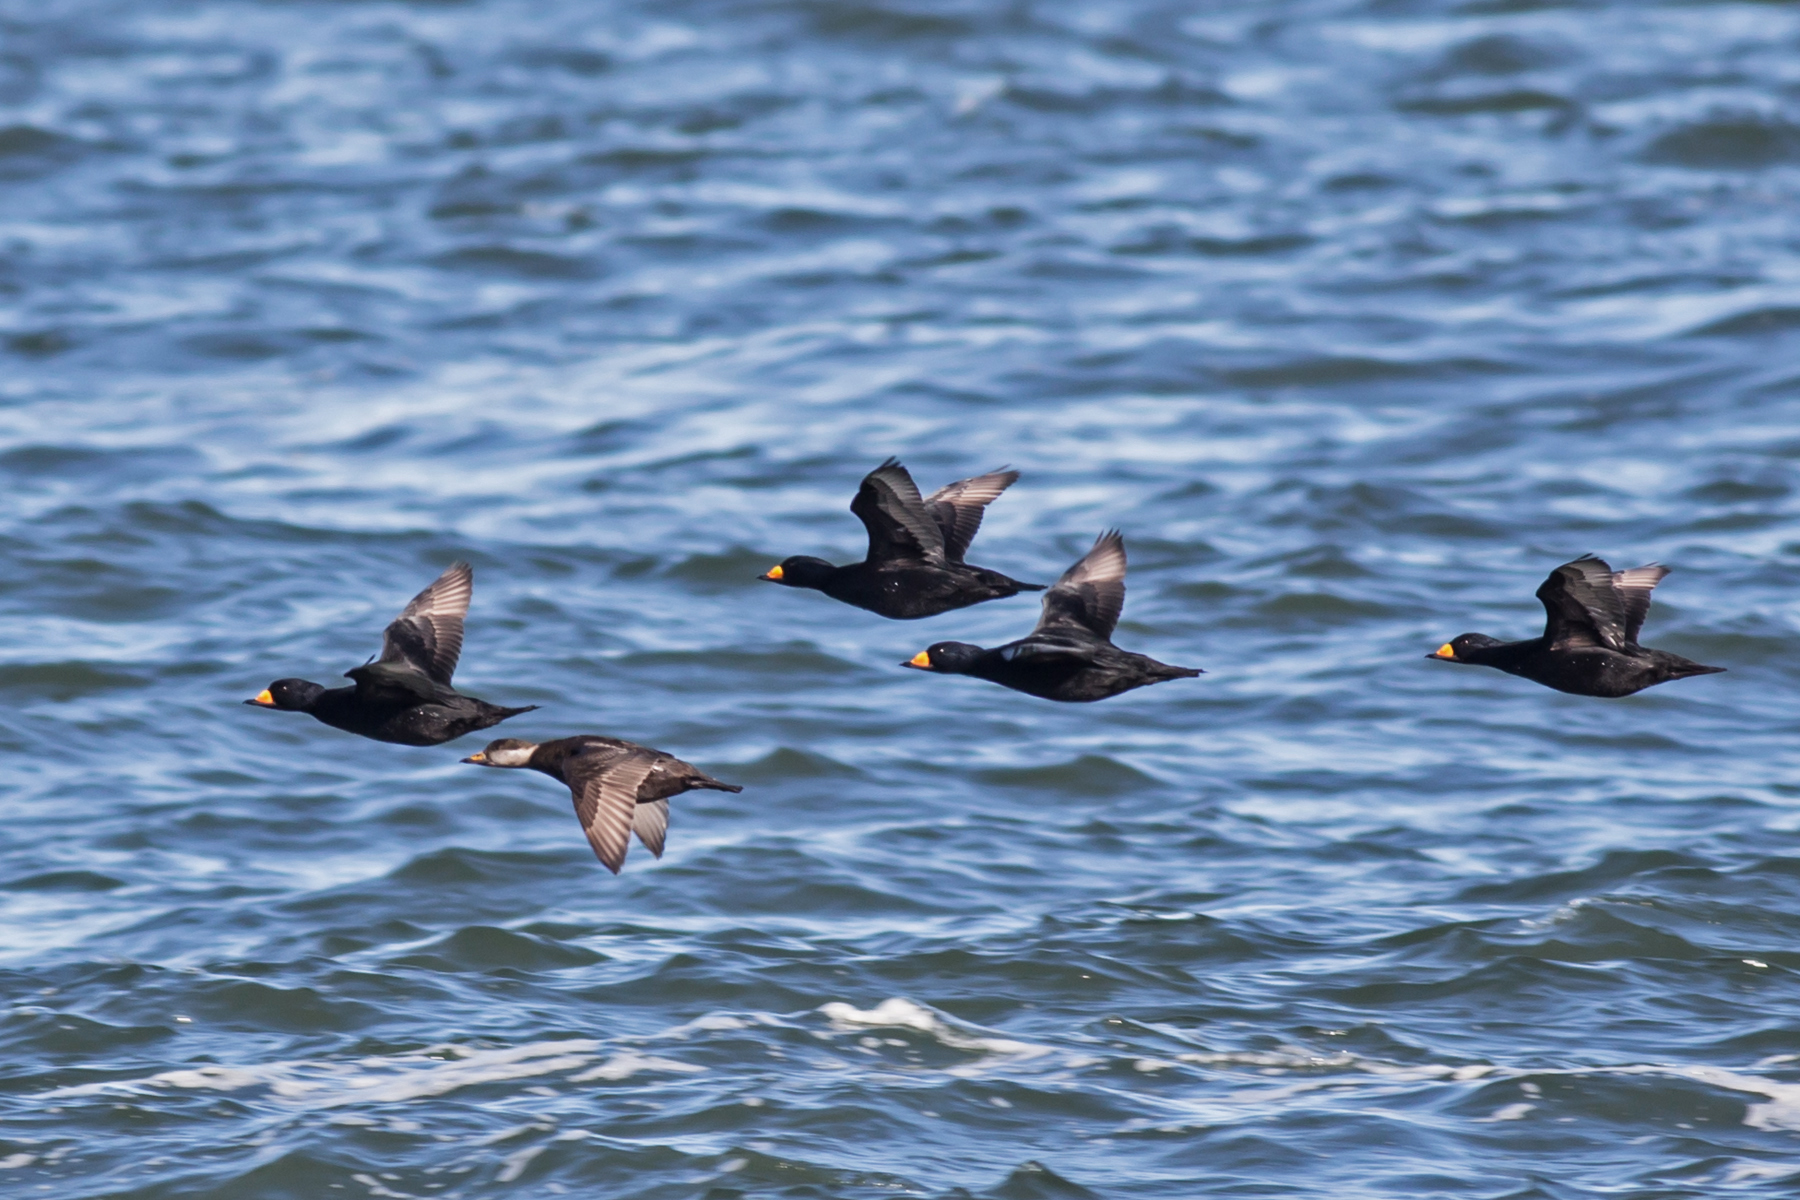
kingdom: Animalia
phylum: Chordata
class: Aves
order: Anseriformes
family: Anatidae
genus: Melanitta
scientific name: Melanitta americana
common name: Black scoter
